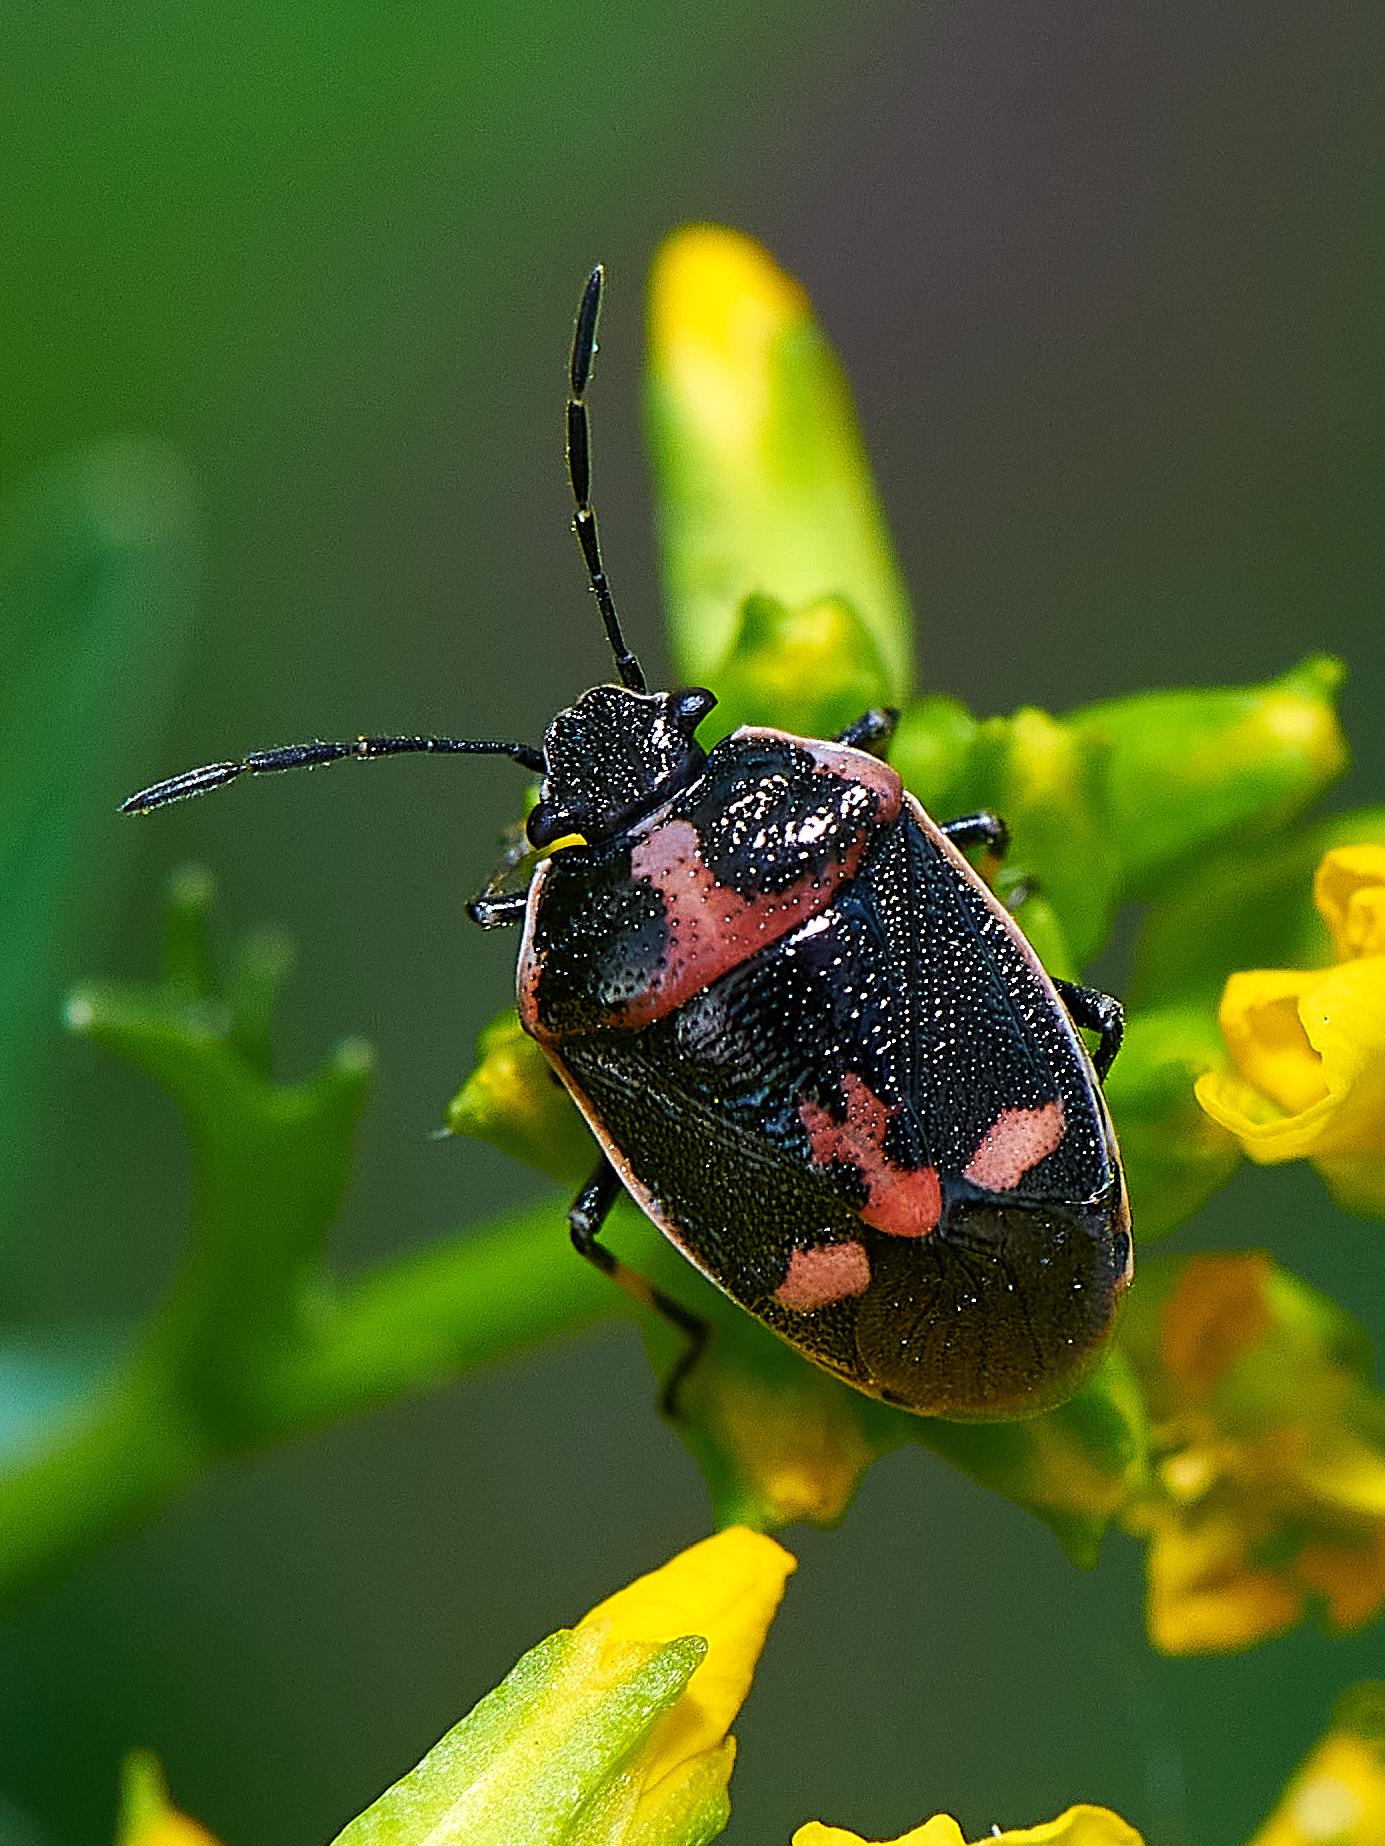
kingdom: Animalia
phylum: Arthropoda
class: Insecta
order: Hemiptera
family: Pentatomidae
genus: Eurydema
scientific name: Eurydema oleracea
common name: Cabbage bug
